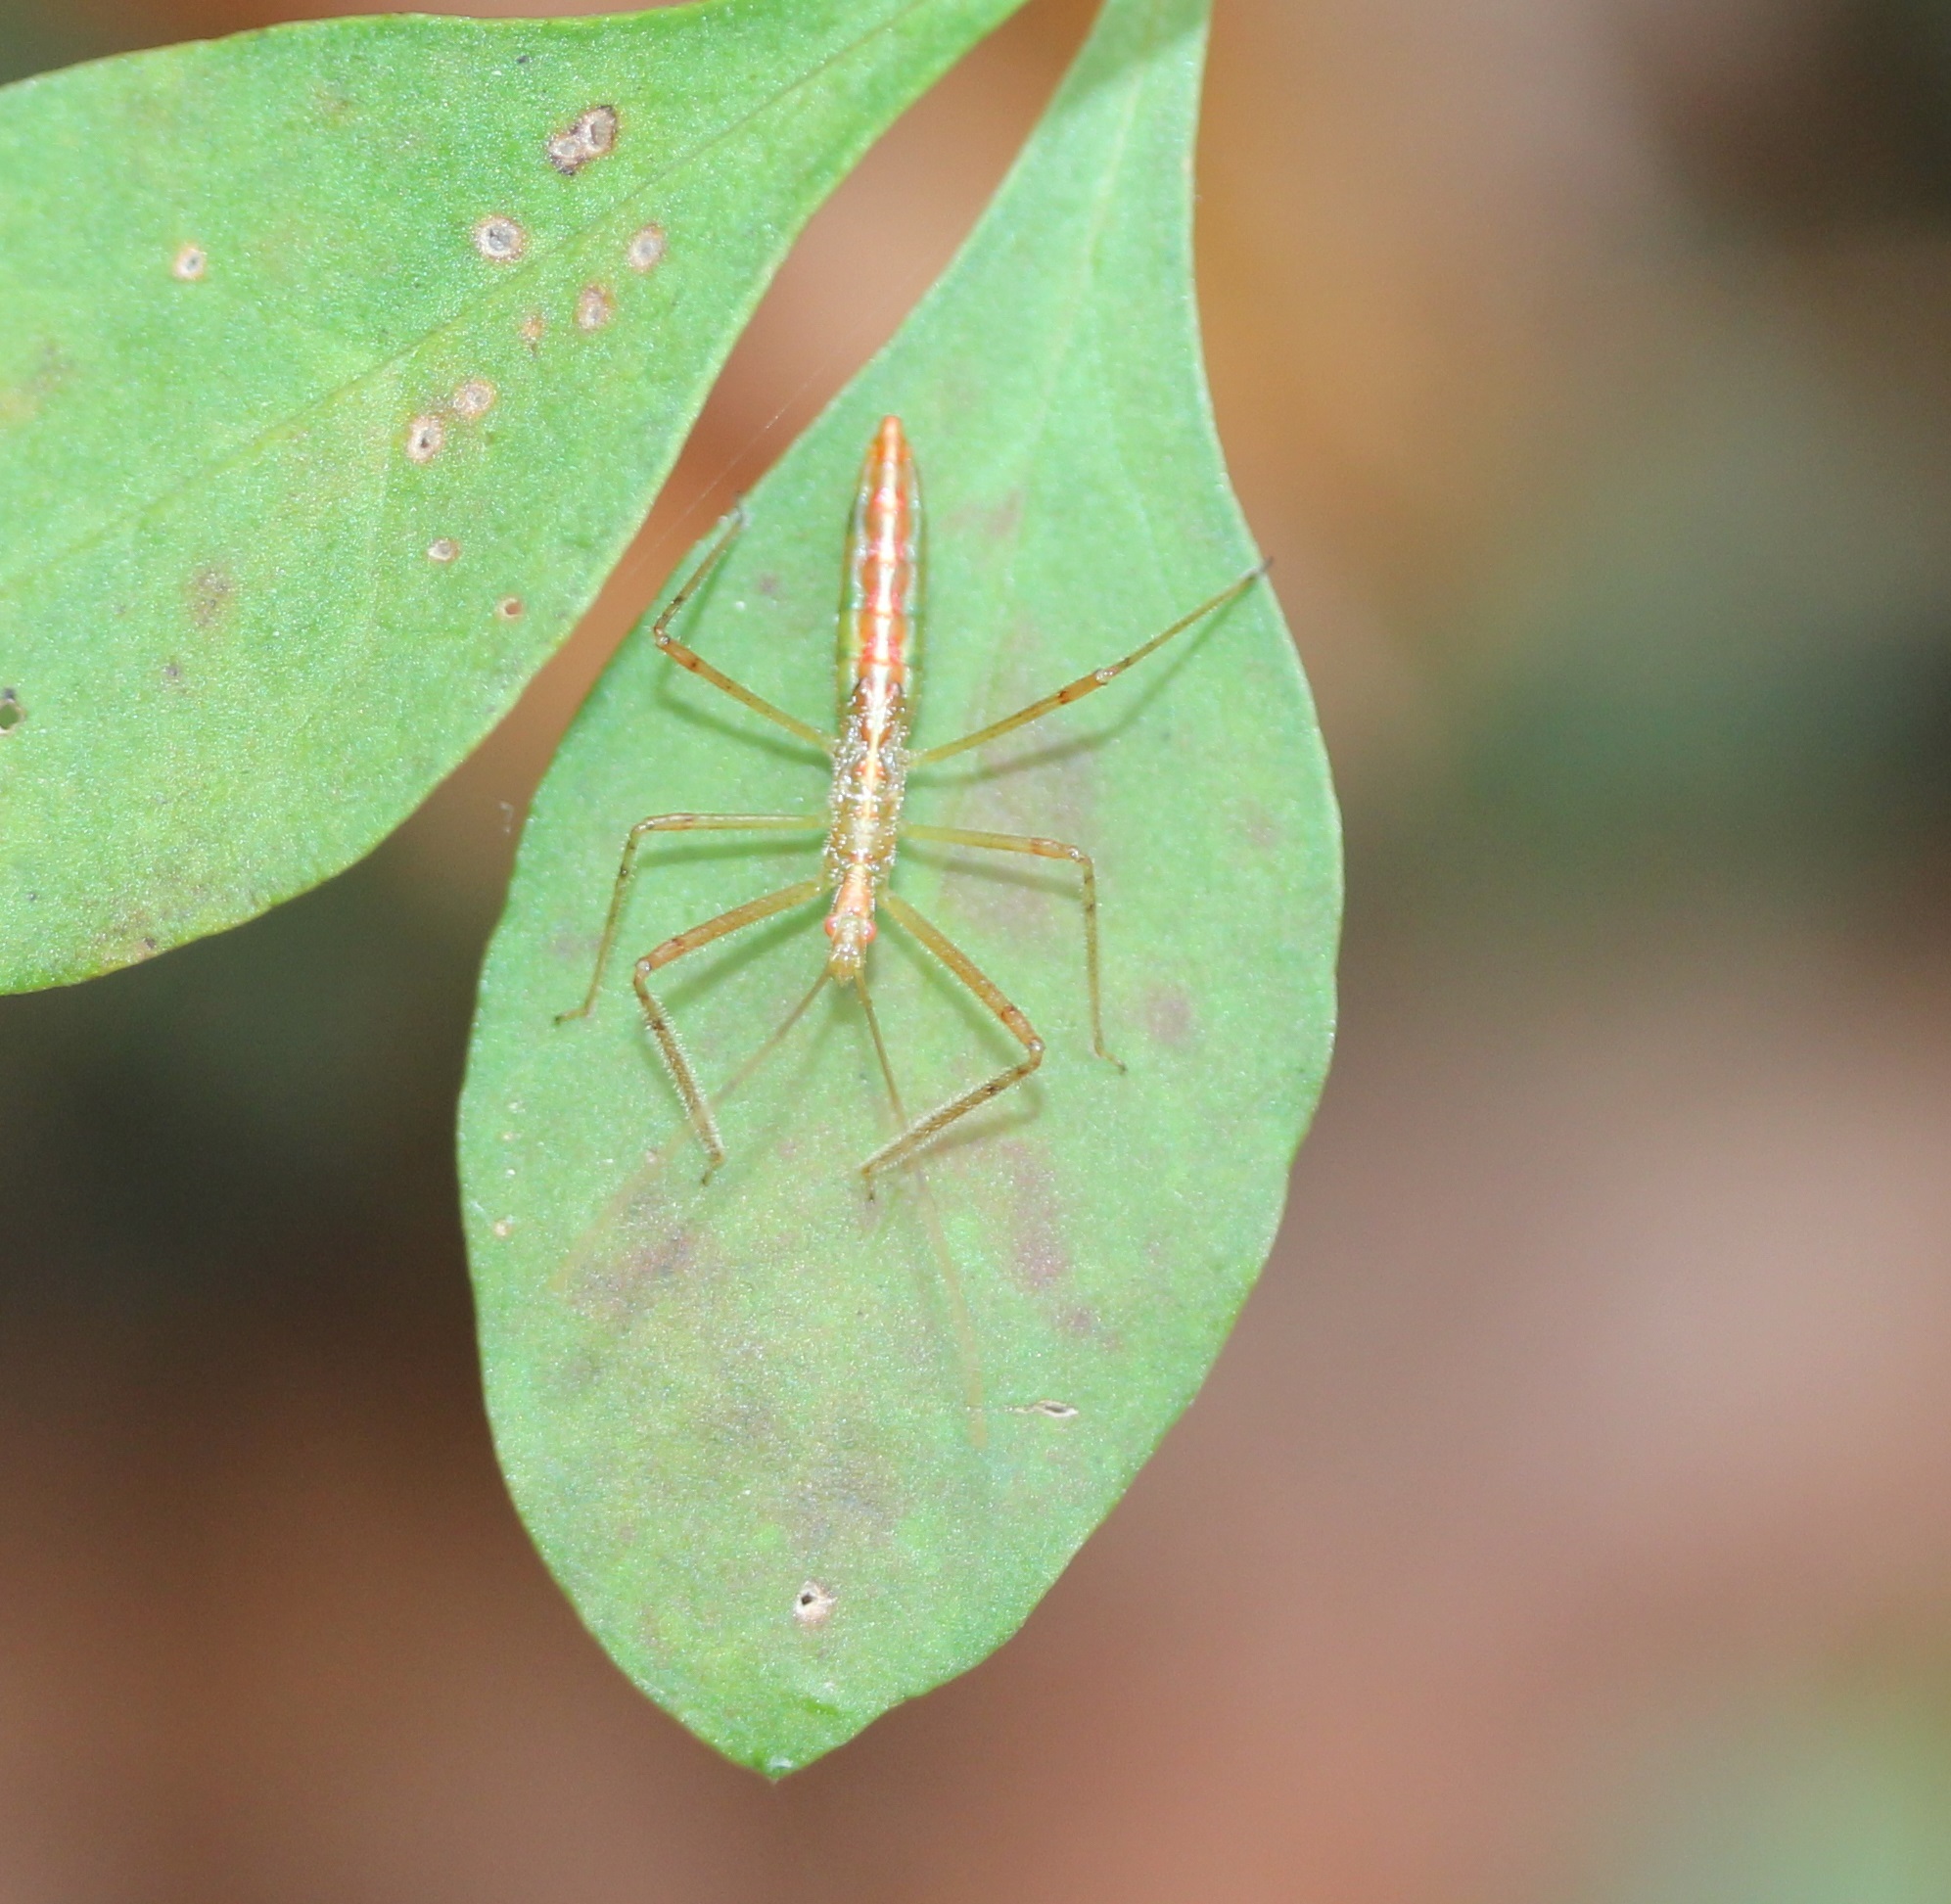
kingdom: Animalia
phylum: Arthropoda
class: Insecta
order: Hemiptera
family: Reduviidae
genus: Zelus
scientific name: Zelus luridus
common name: Pale green assassin bug
